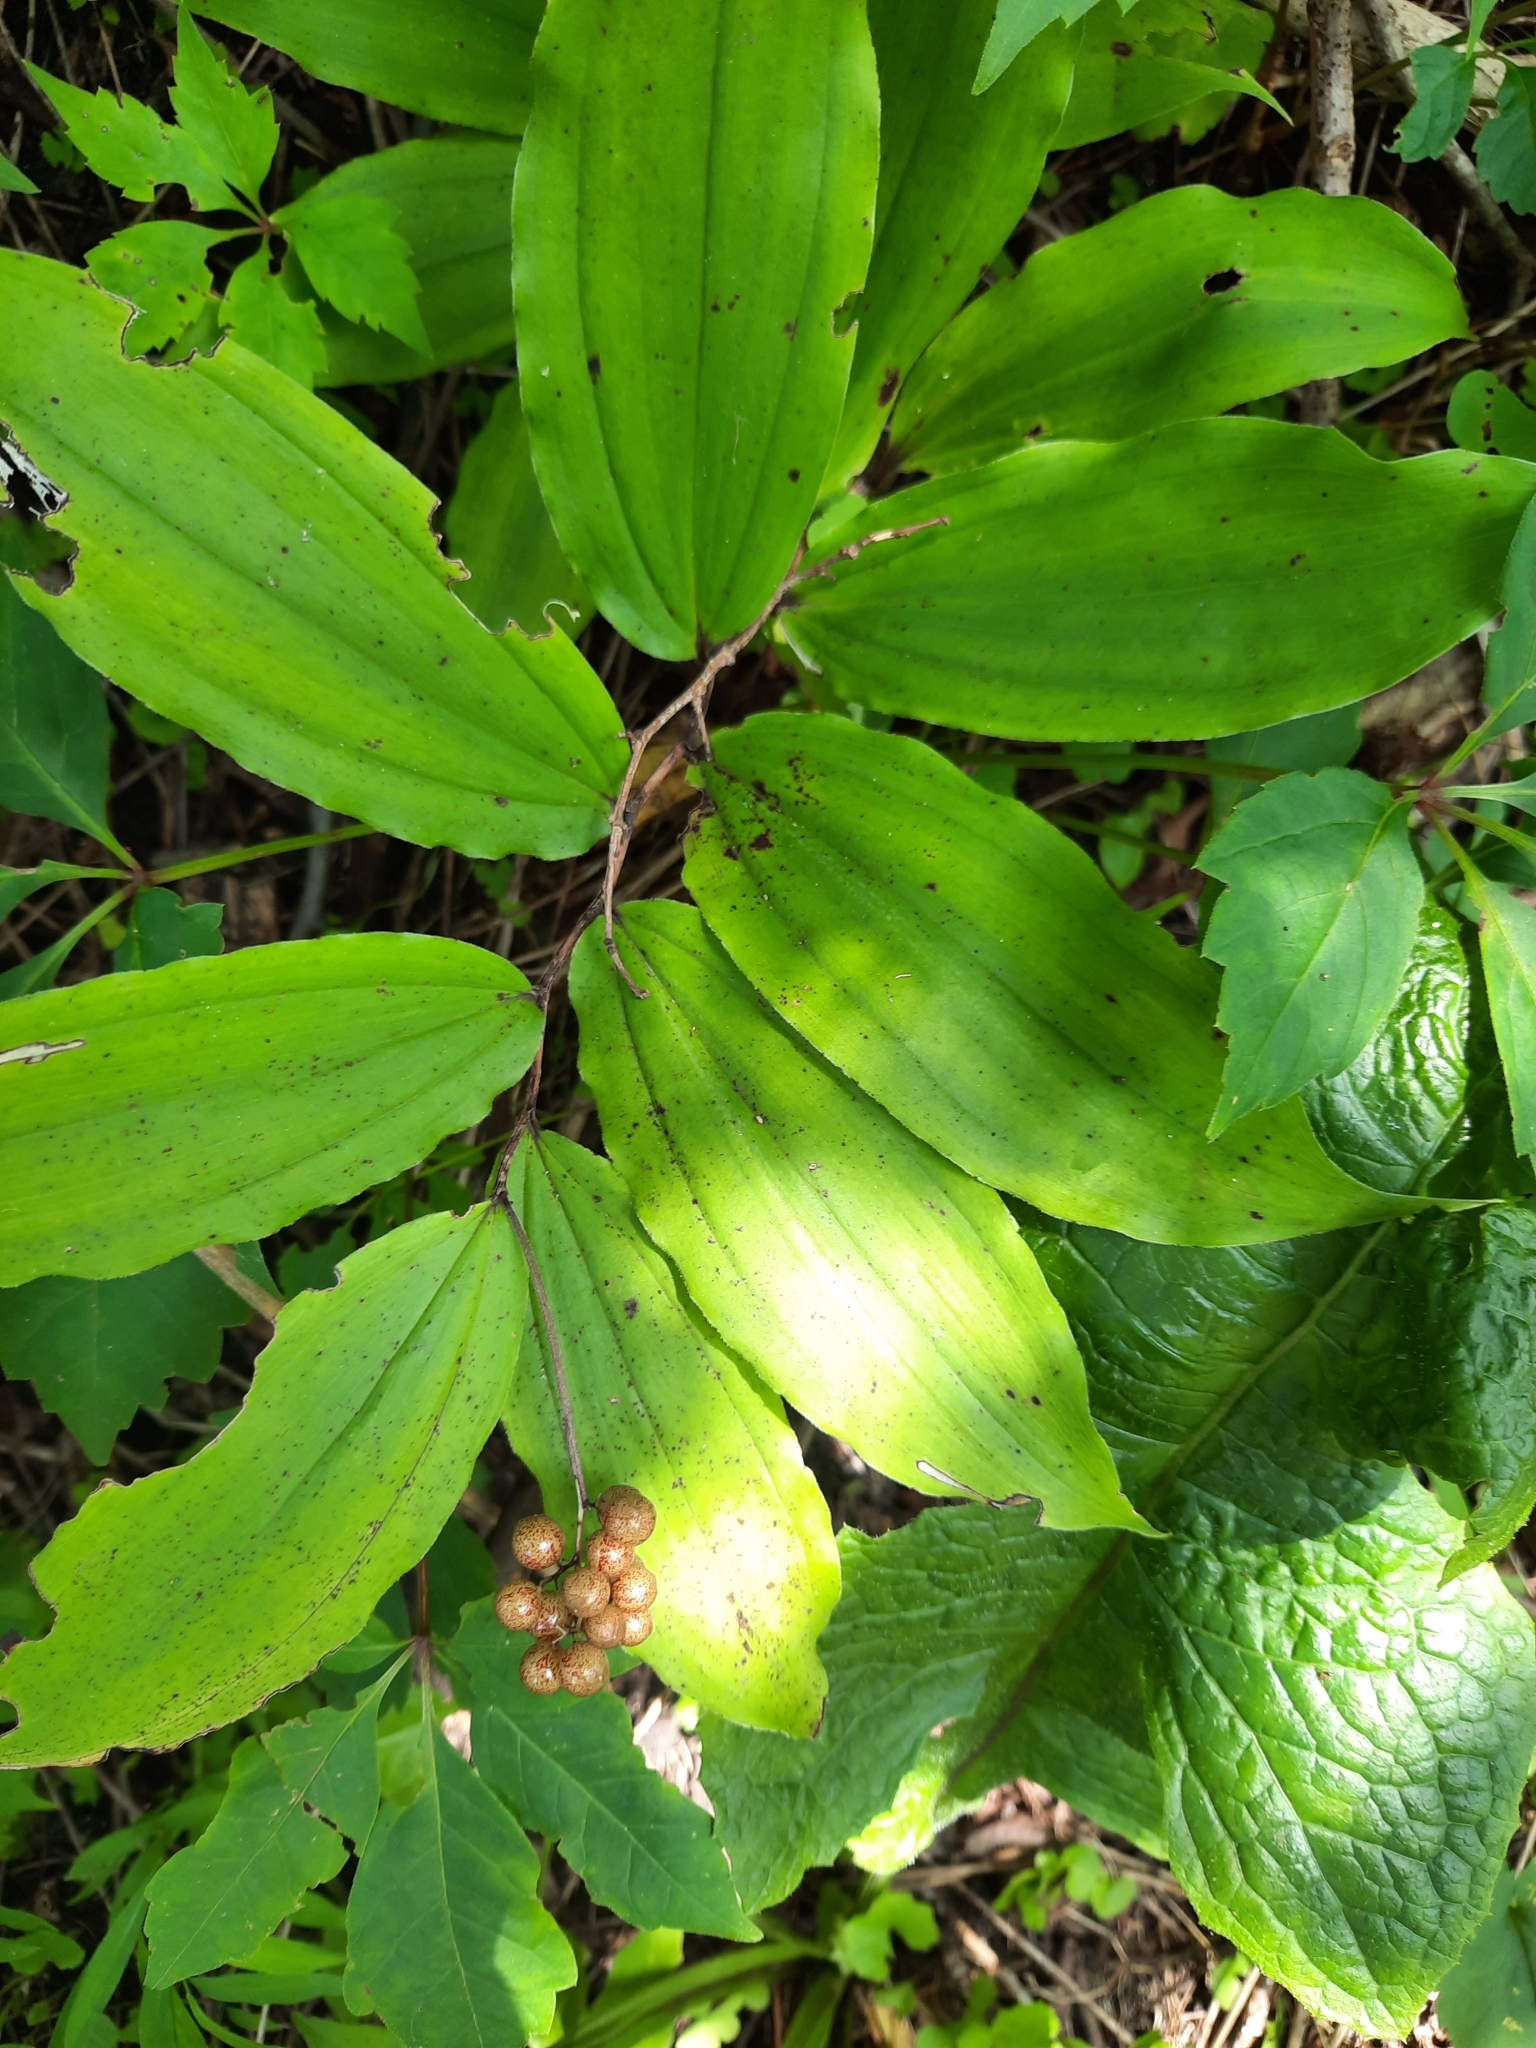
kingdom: Plantae
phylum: Tracheophyta
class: Liliopsida
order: Asparagales
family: Asparagaceae
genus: Maianthemum
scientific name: Maianthemum racemosum
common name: False spikenard
